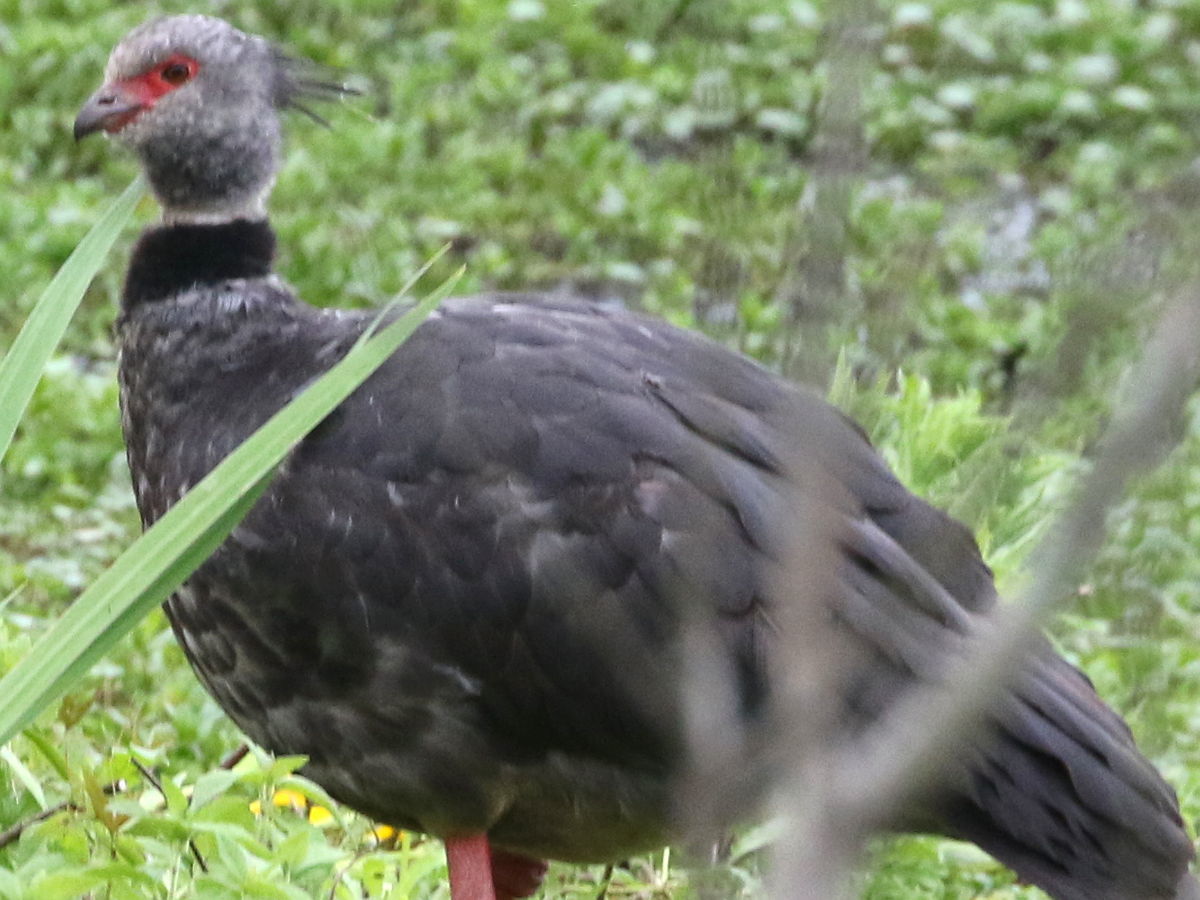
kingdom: Animalia
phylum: Chordata
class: Aves
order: Anseriformes
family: Anhimidae
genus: Chauna
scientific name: Chauna torquata
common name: Southern screamer
